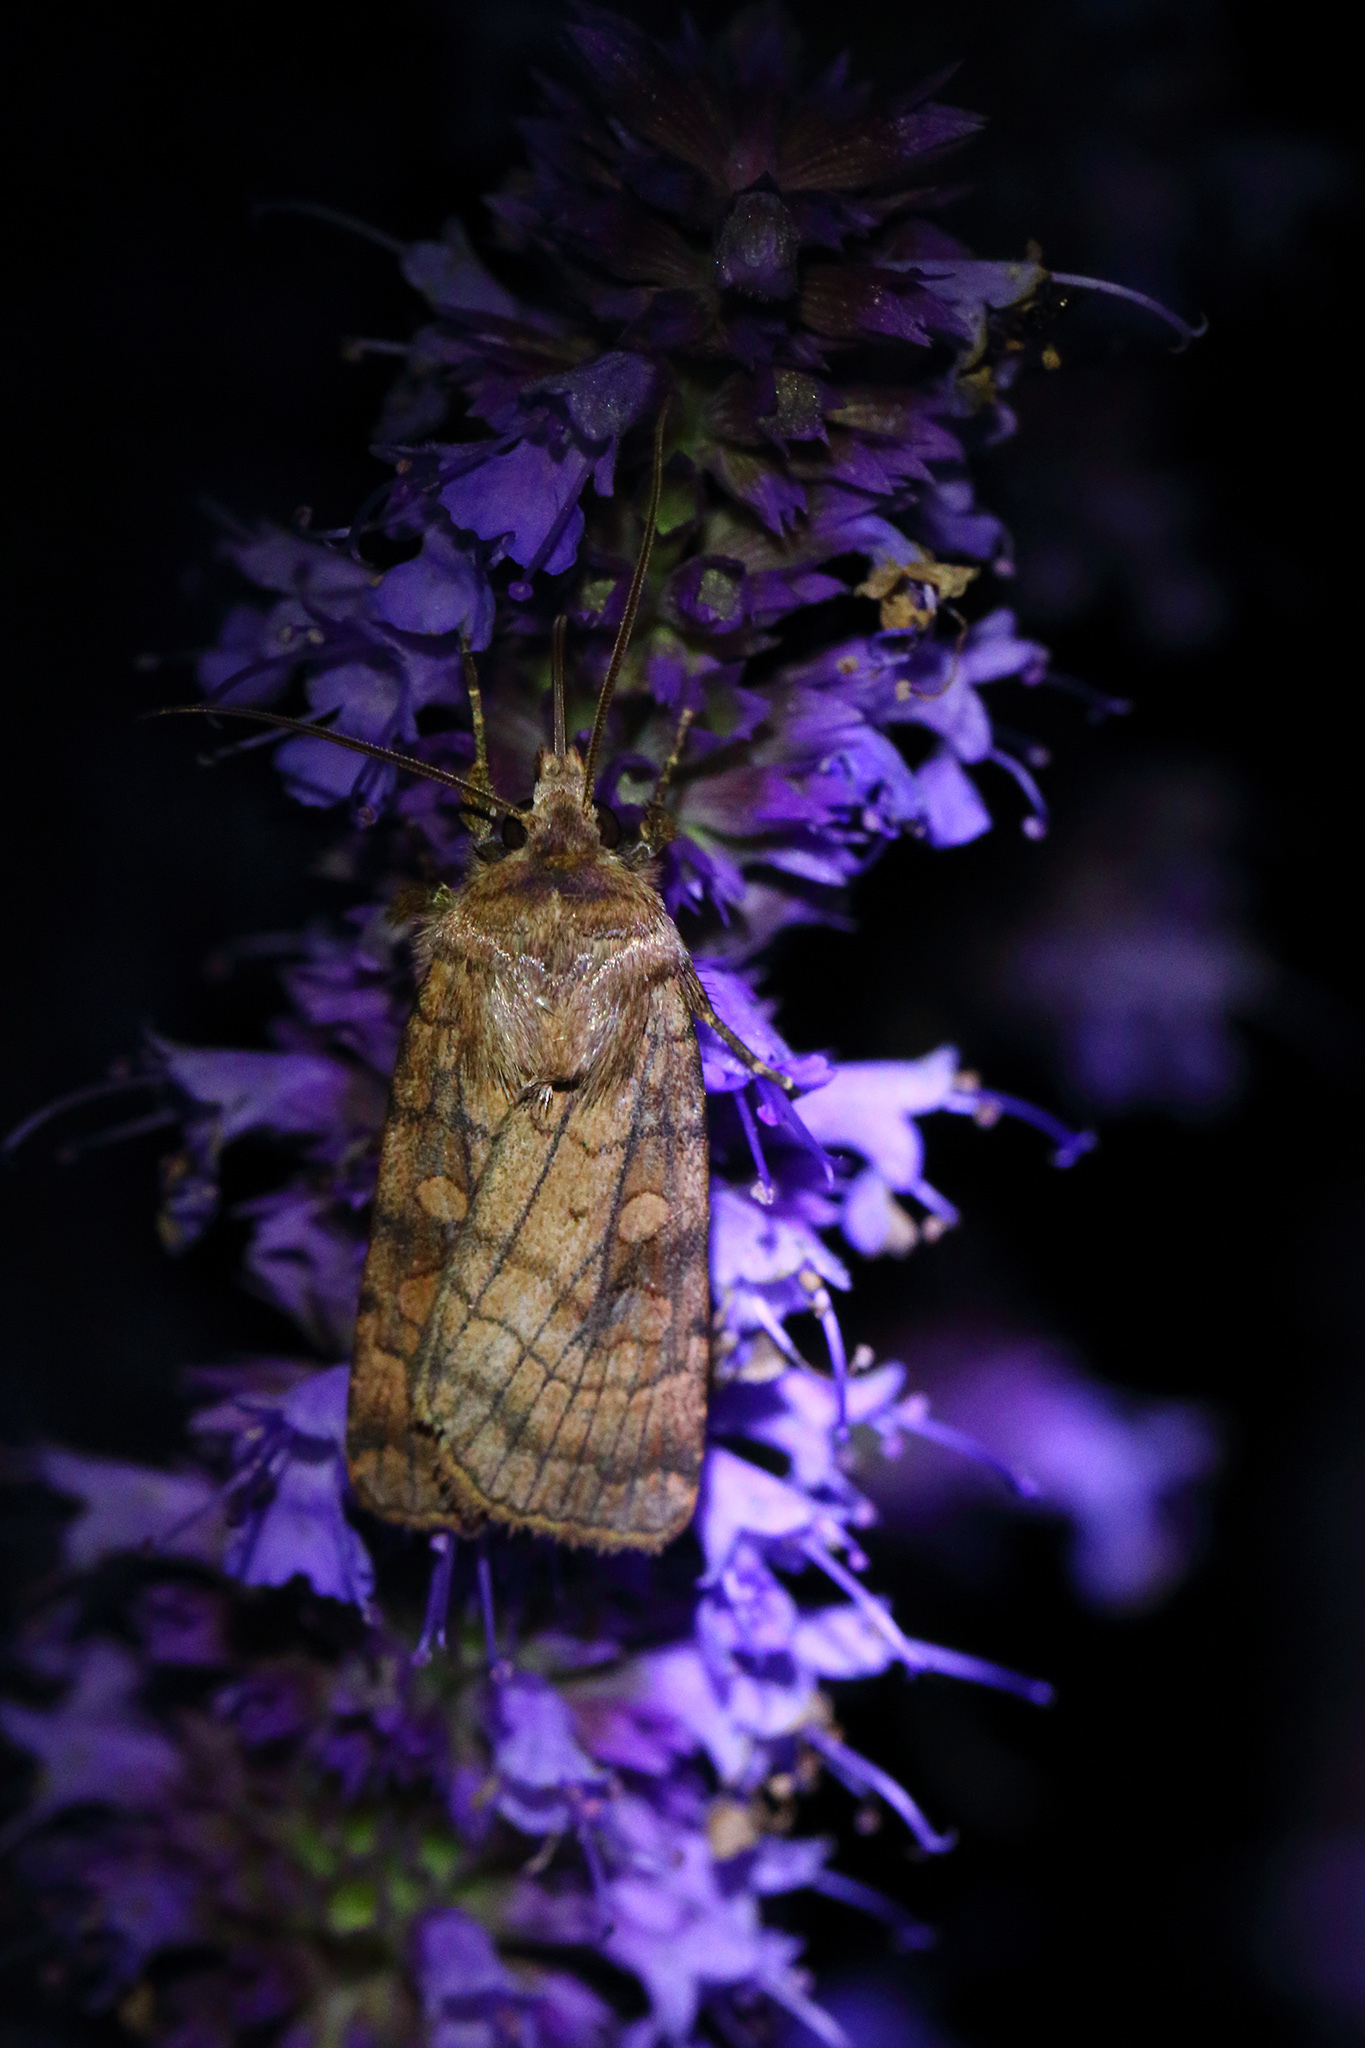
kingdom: Animalia
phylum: Arthropoda
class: Insecta
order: Lepidoptera
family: Noctuidae
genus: Xestia
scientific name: Xestia sexstrigata
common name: Six-striped rustic
